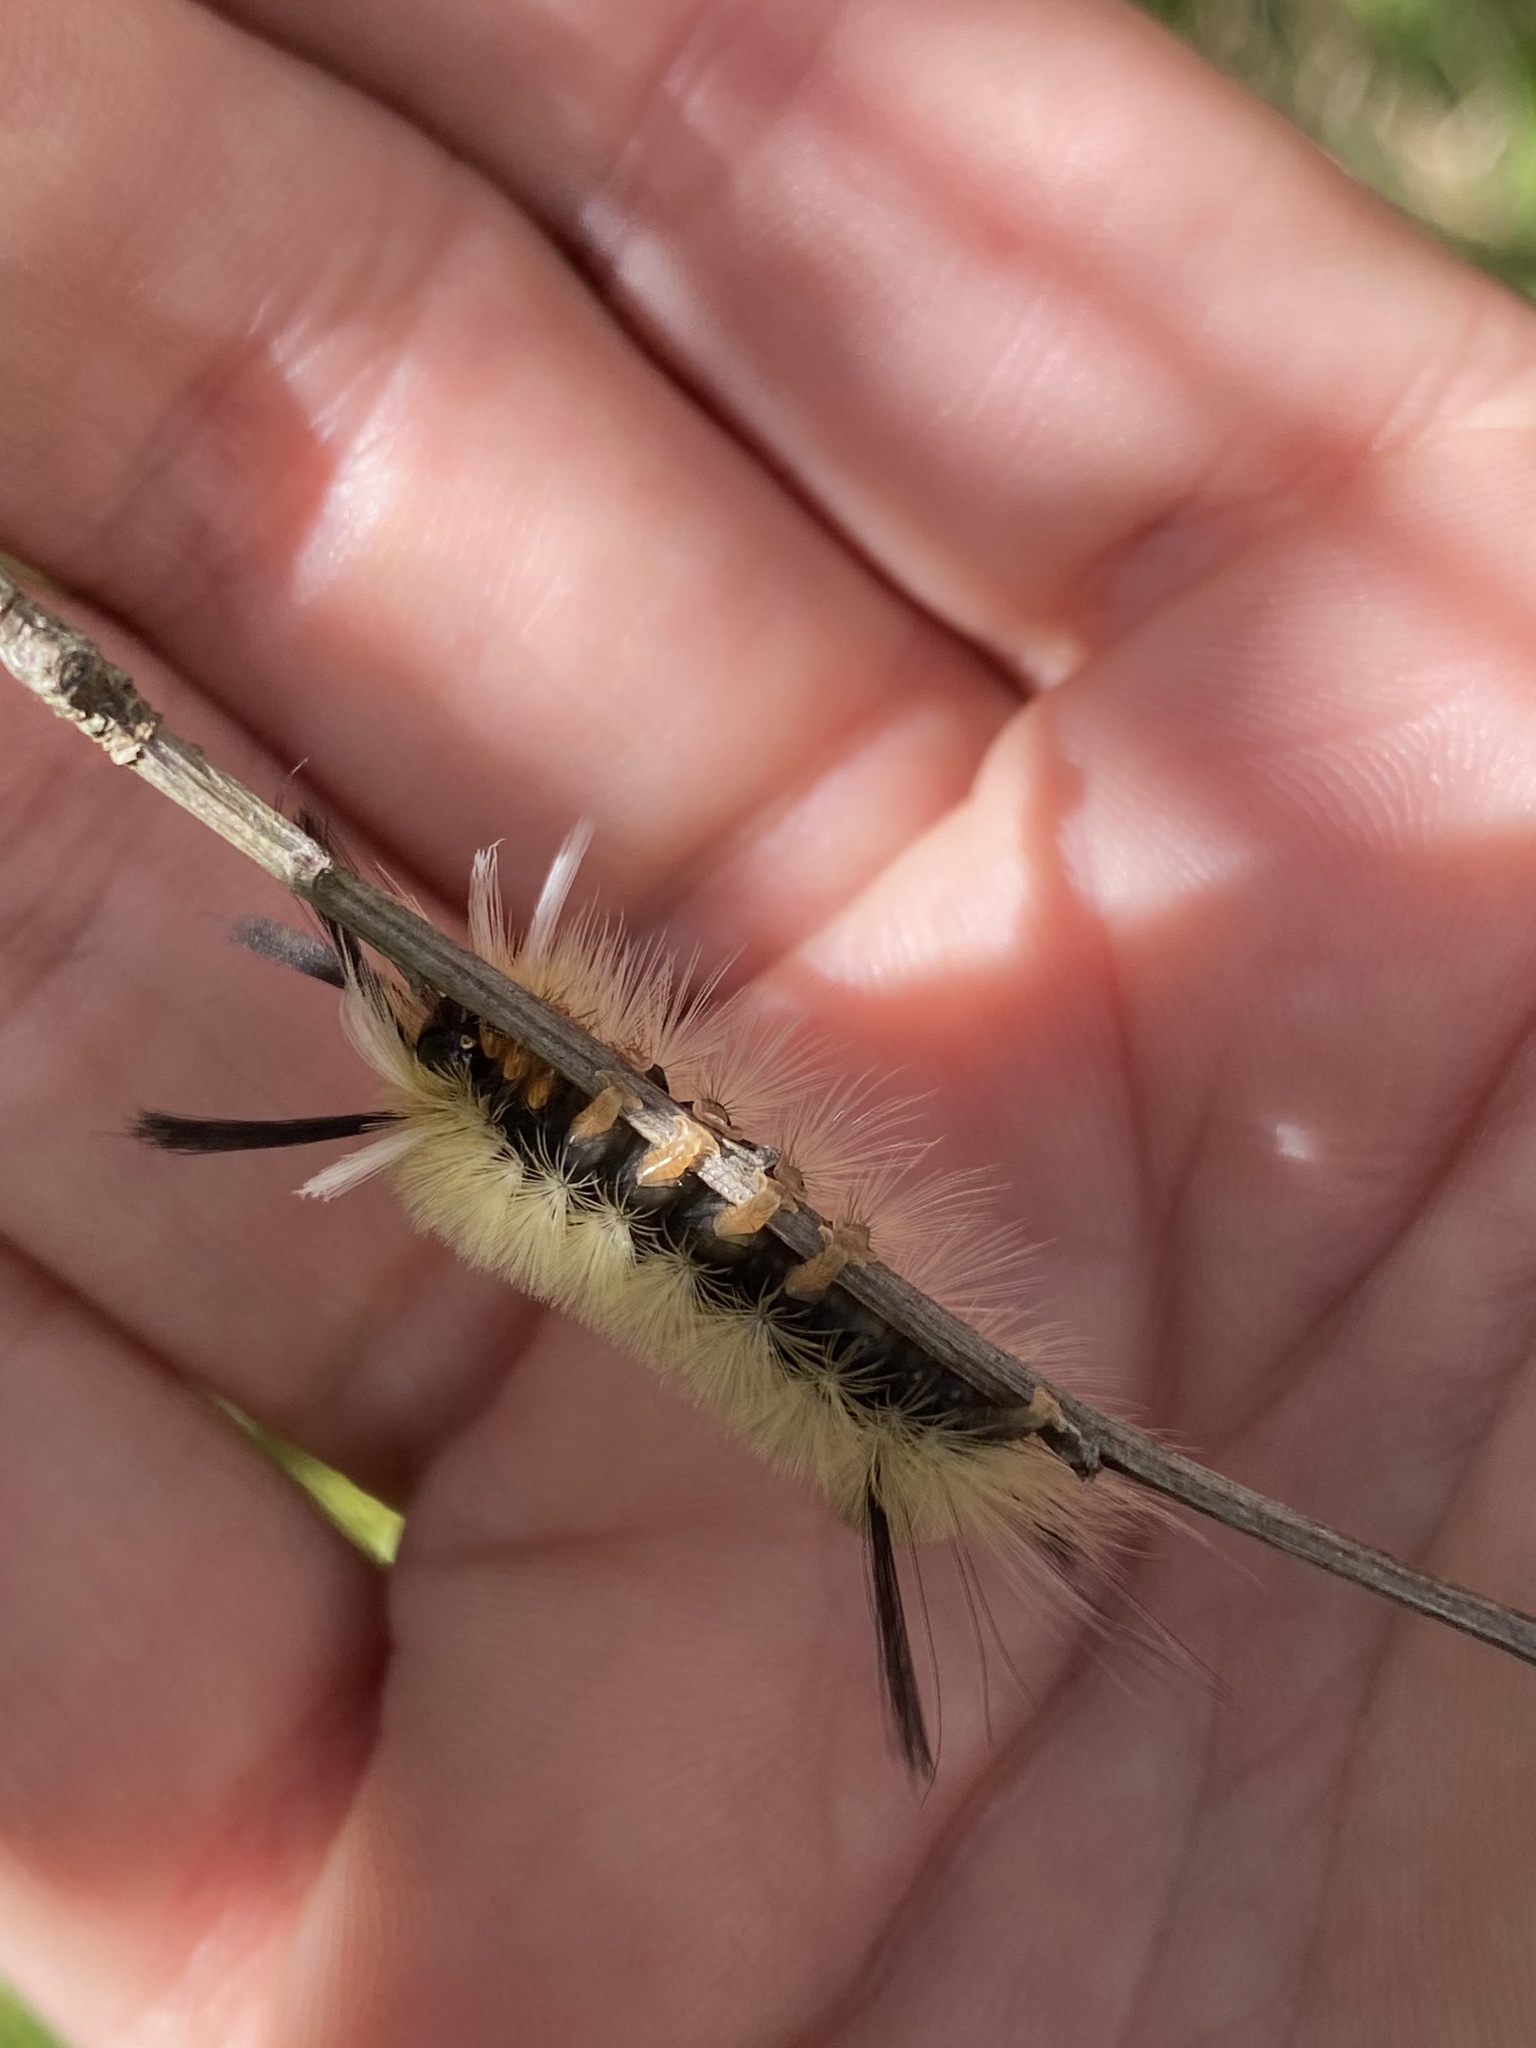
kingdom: Animalia
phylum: Arthropoda
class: Insecta
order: Lepidoptera
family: Erebidae
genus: Halysidota
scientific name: Halysidota tessellaris
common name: Banded tussock moth
